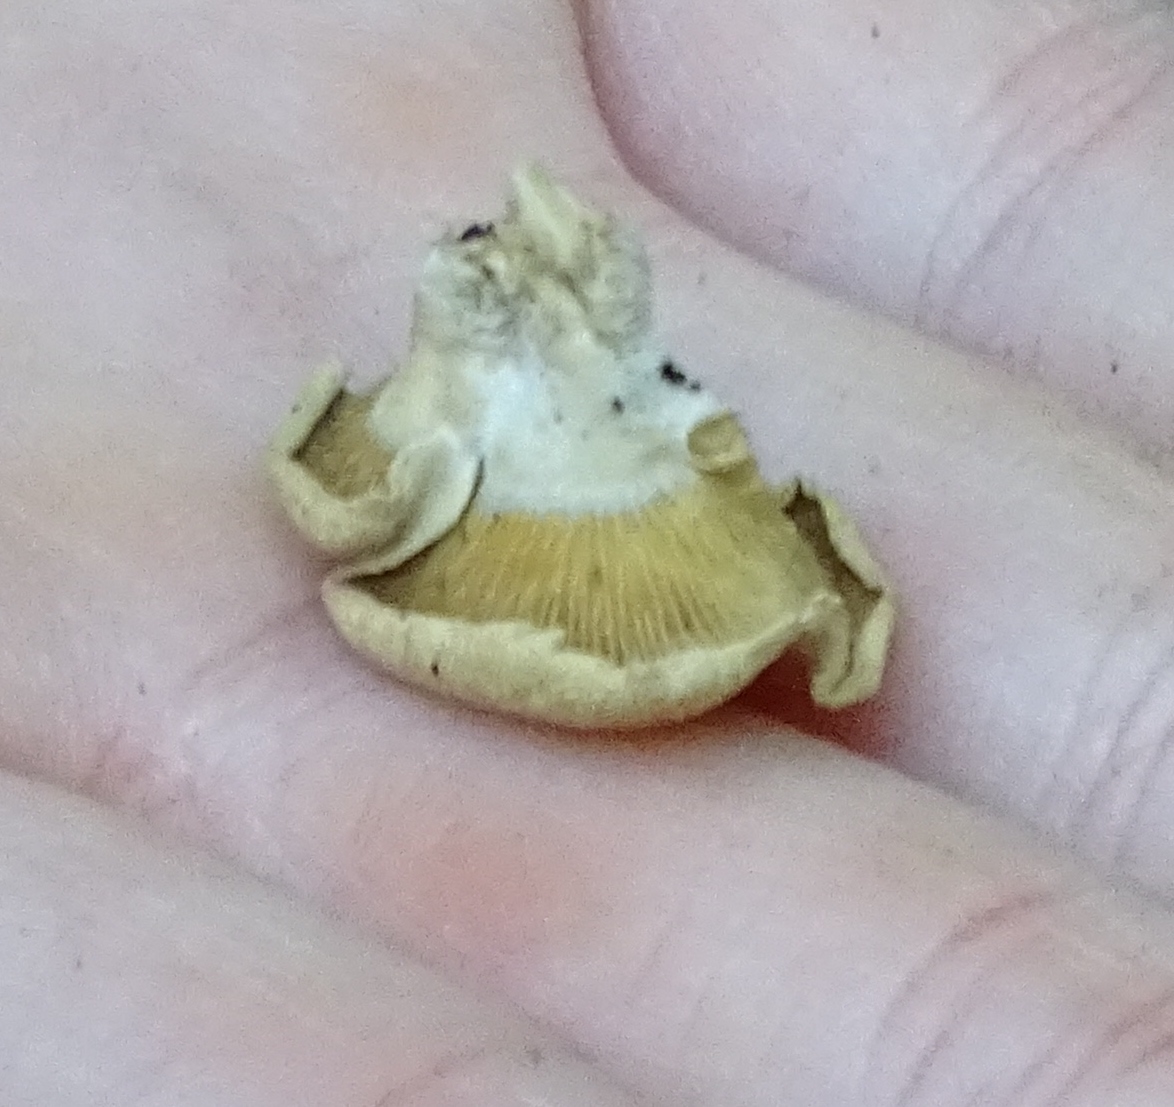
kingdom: Fungi
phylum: Basidiomycota
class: Agaricomycetes
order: Agaricales
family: Mycenaceae
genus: Panellus
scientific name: Panellus stipticus
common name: Bitter oysterling
